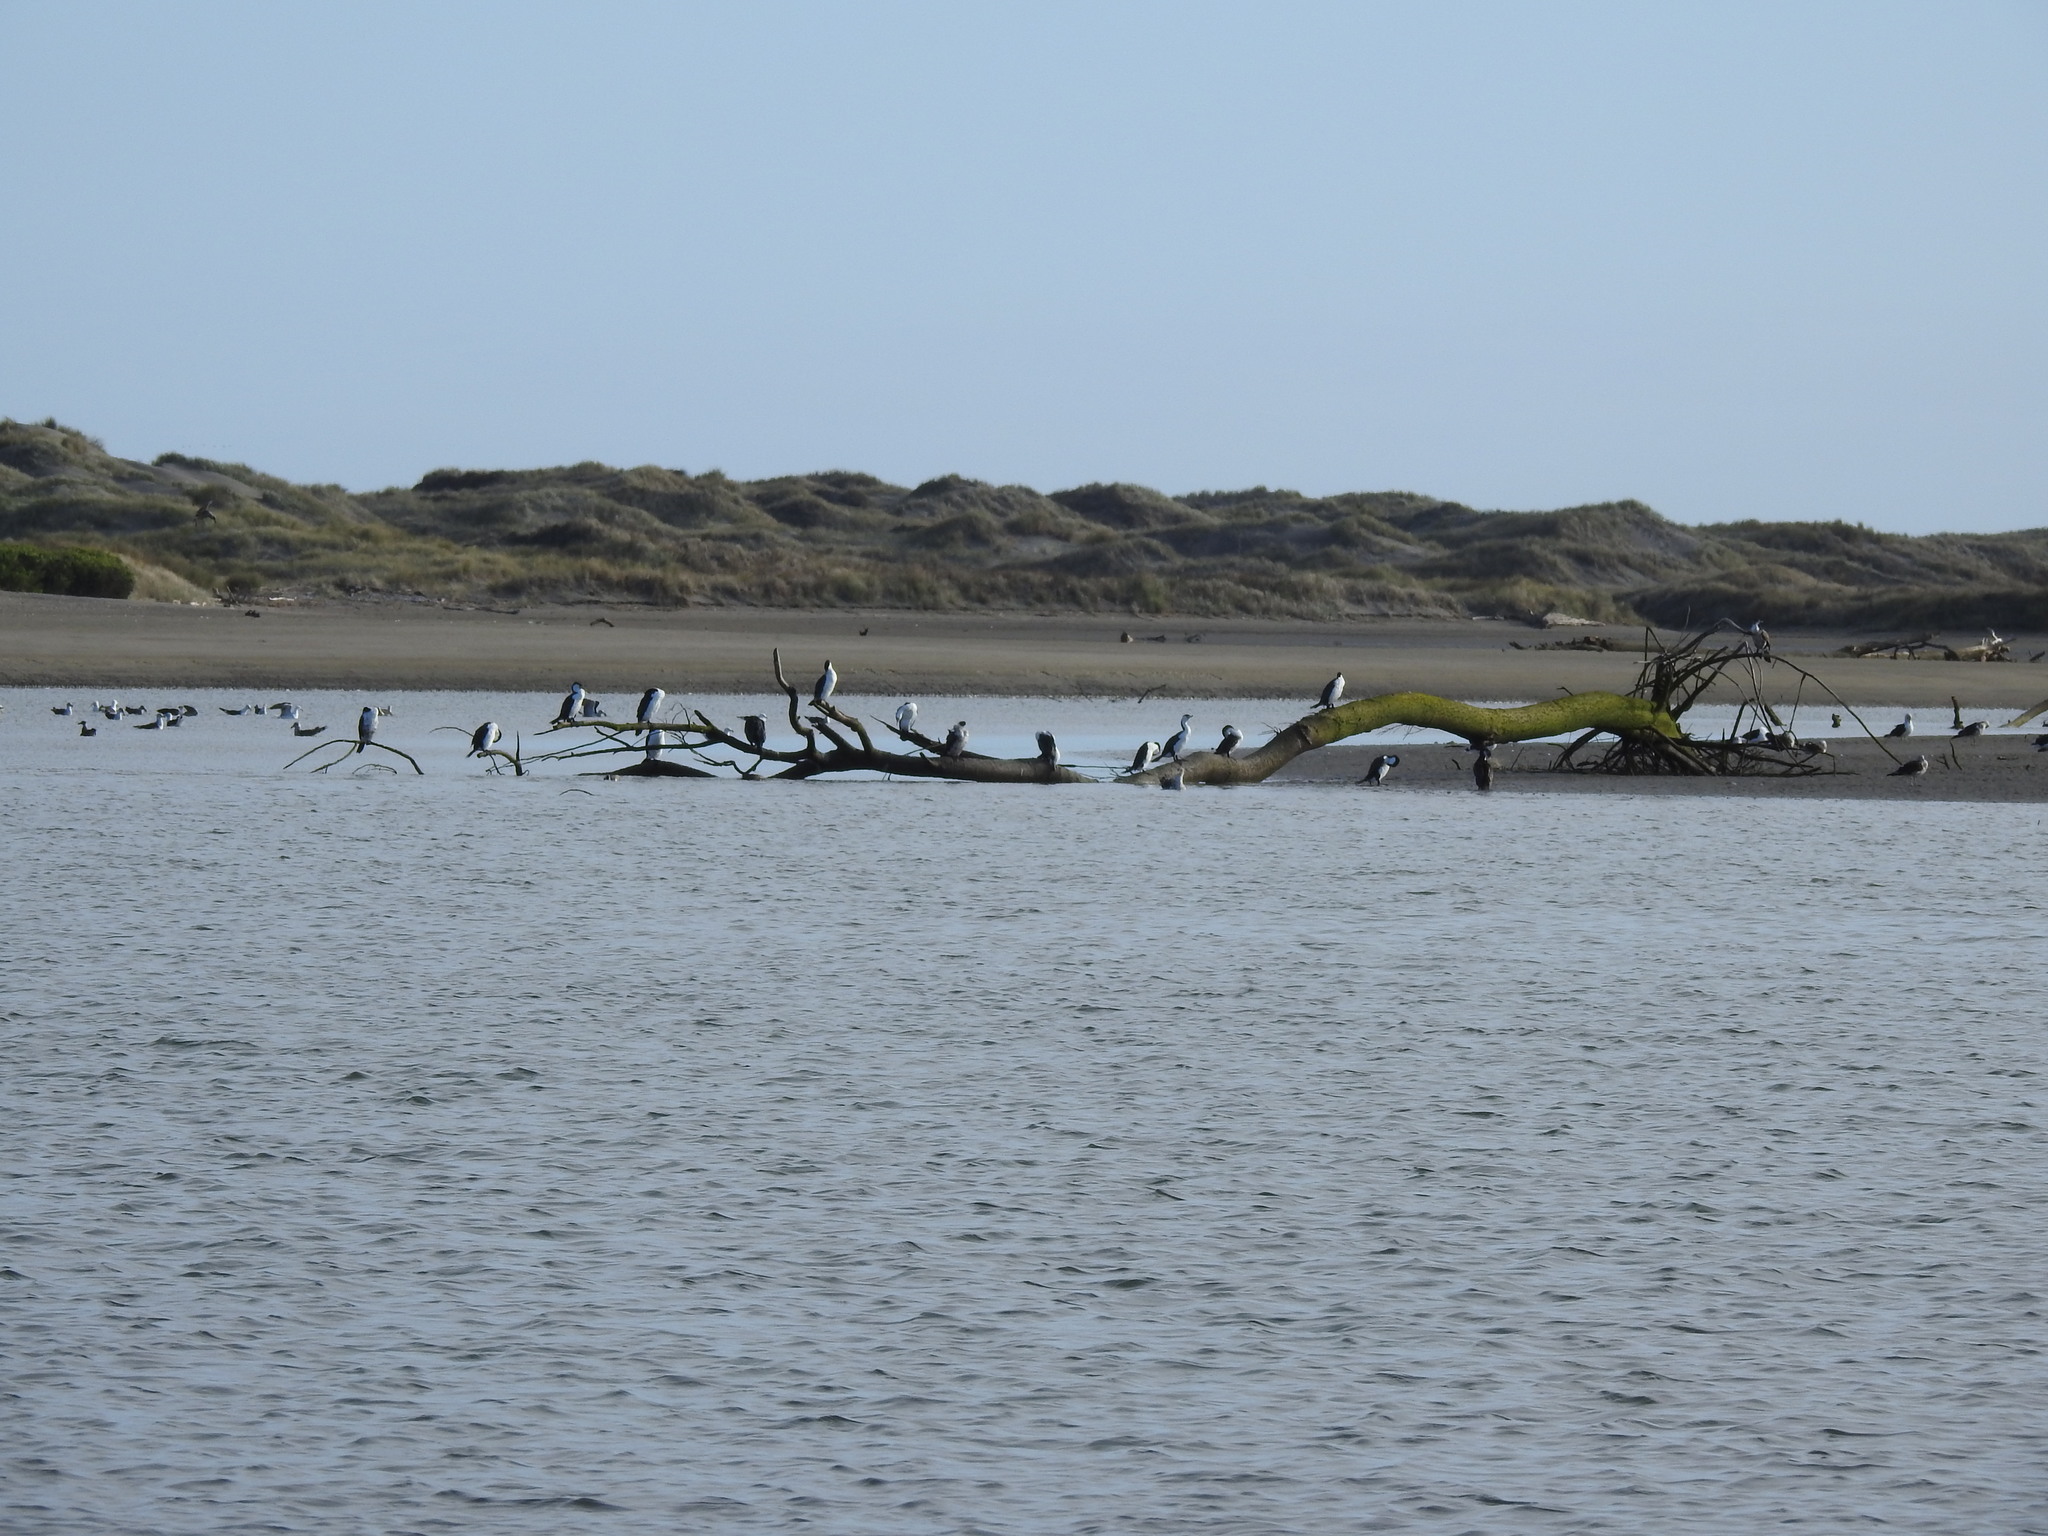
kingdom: Animalia
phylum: Chordata
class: Aves
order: Suliformes
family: Phalacrocoracidae
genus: Phalacrocorax
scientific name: Phalacrocorax varius
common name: Pied cormorant
